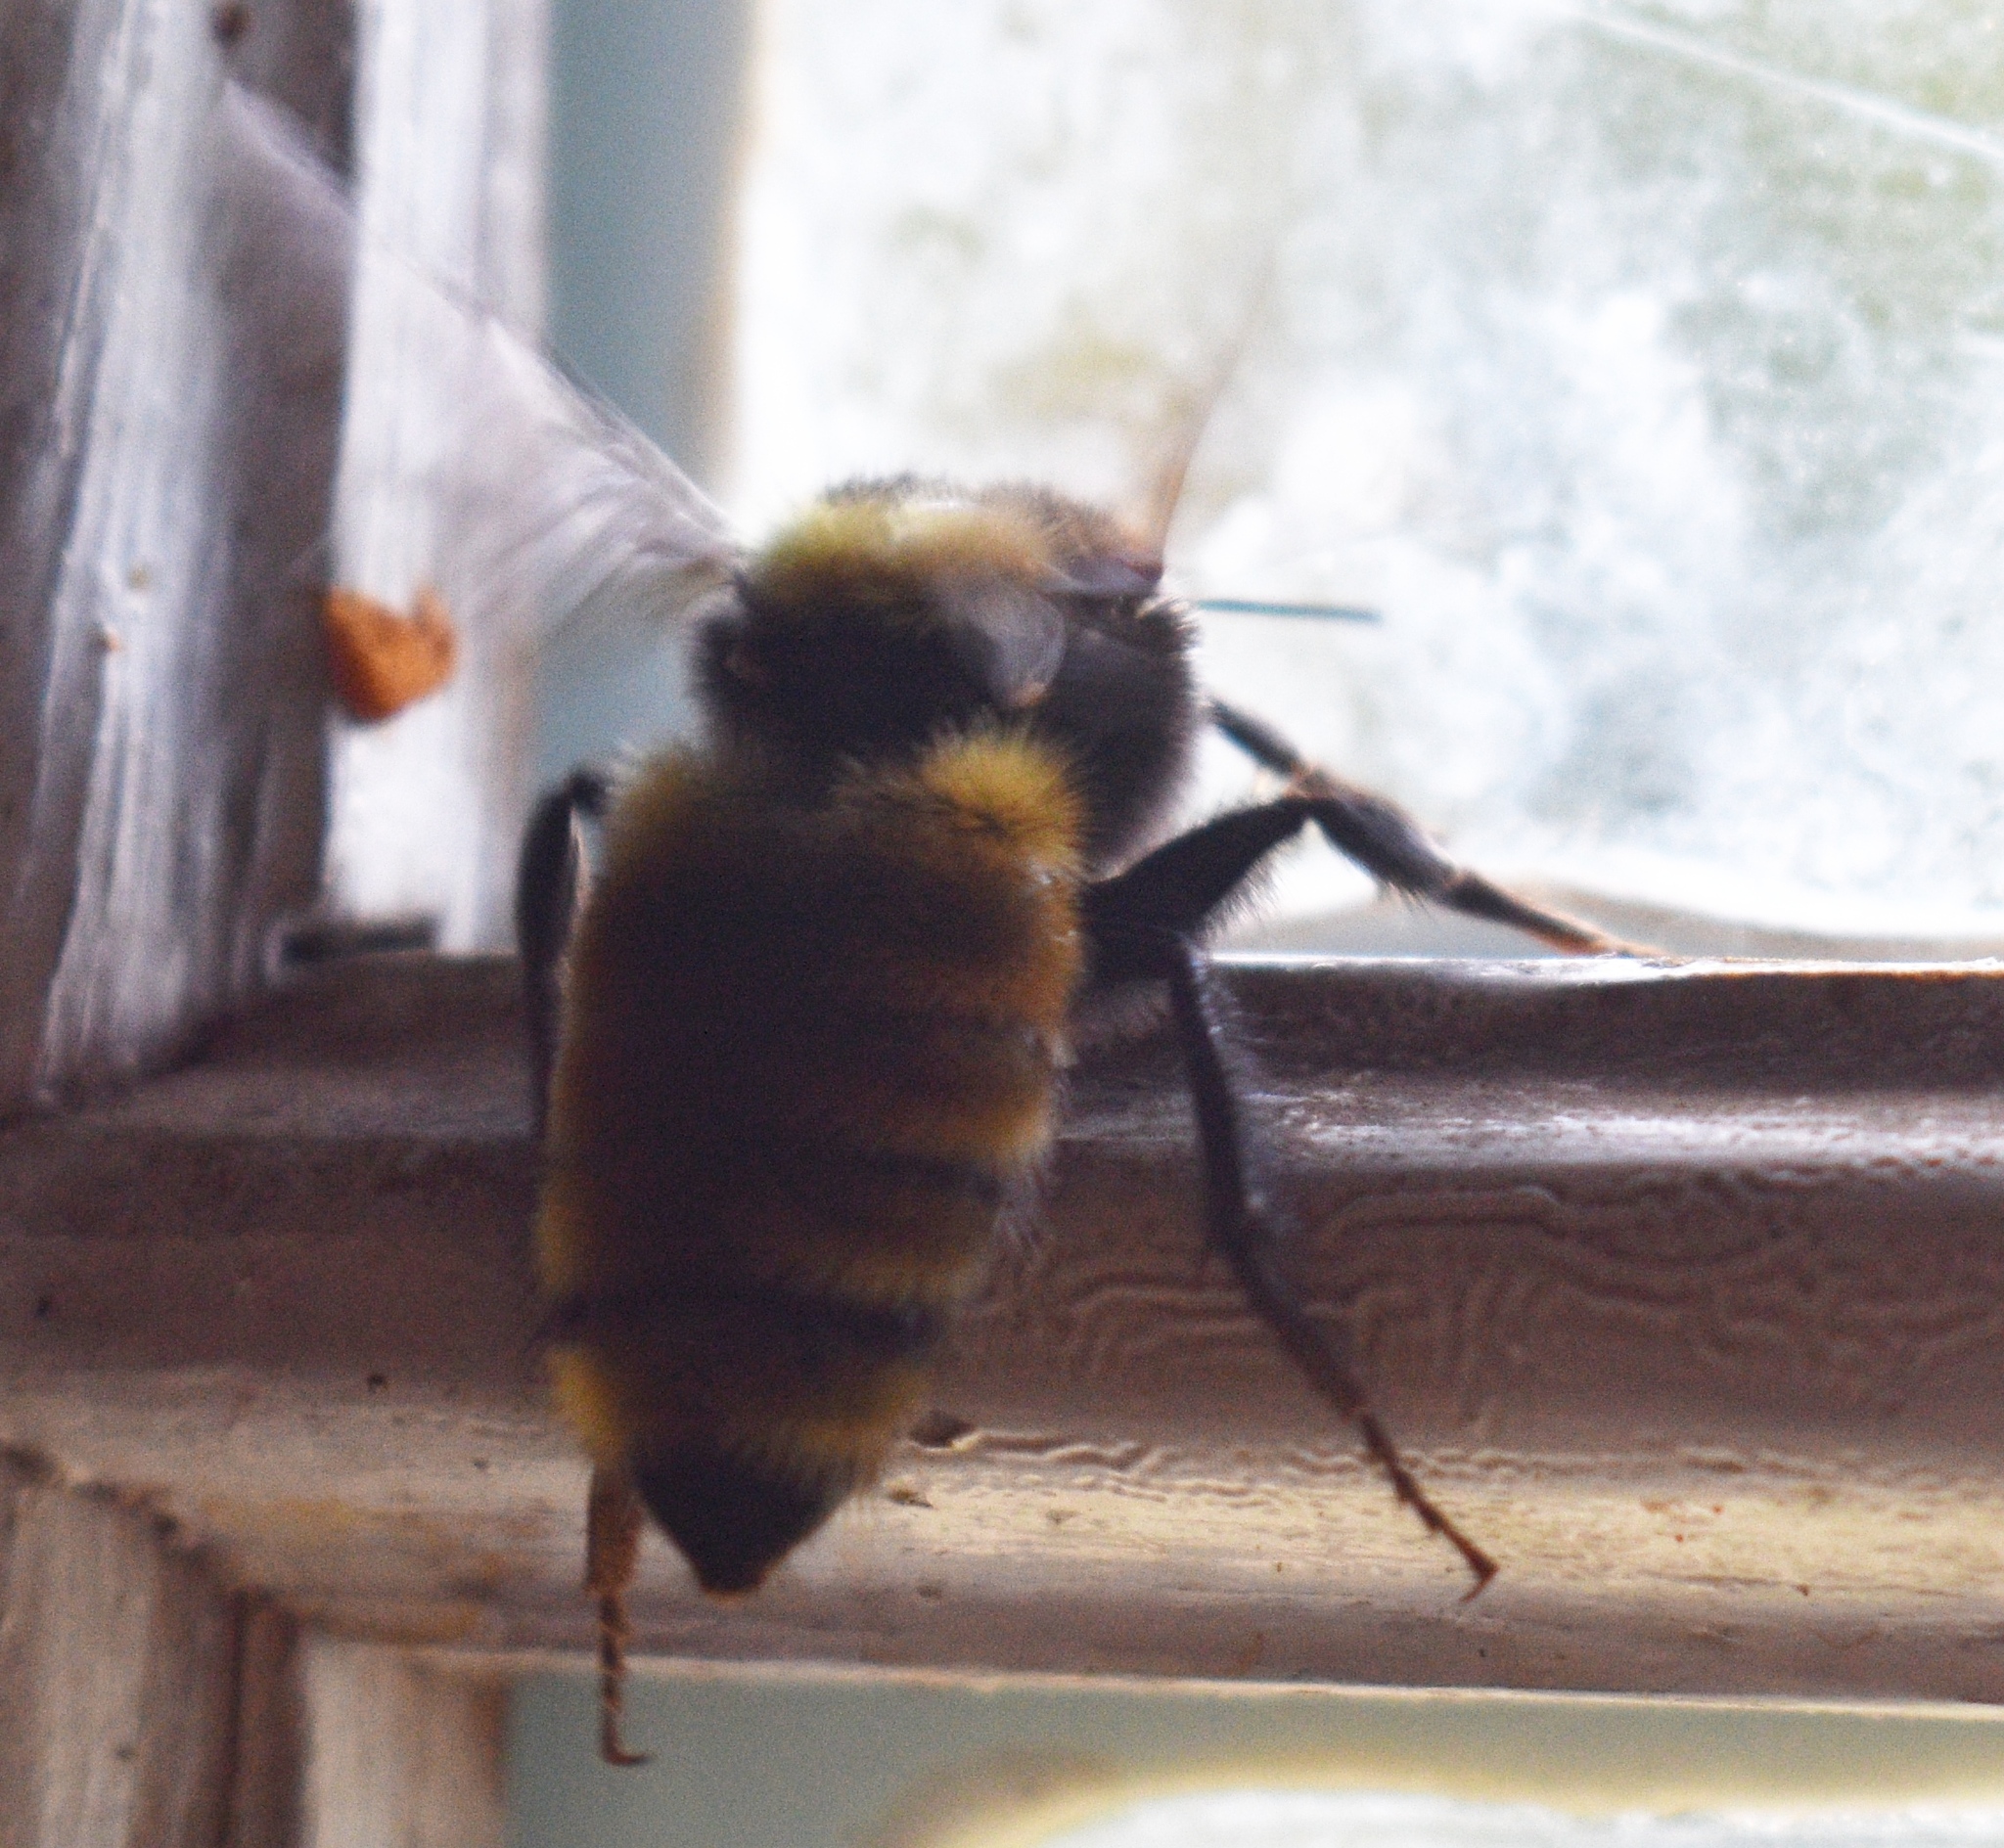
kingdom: Animalia
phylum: Arthropoda
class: Insecta
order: Hymenoptera
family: Apidae
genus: Bombus
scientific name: Bombus appositus
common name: White-shouldered bumble bee
